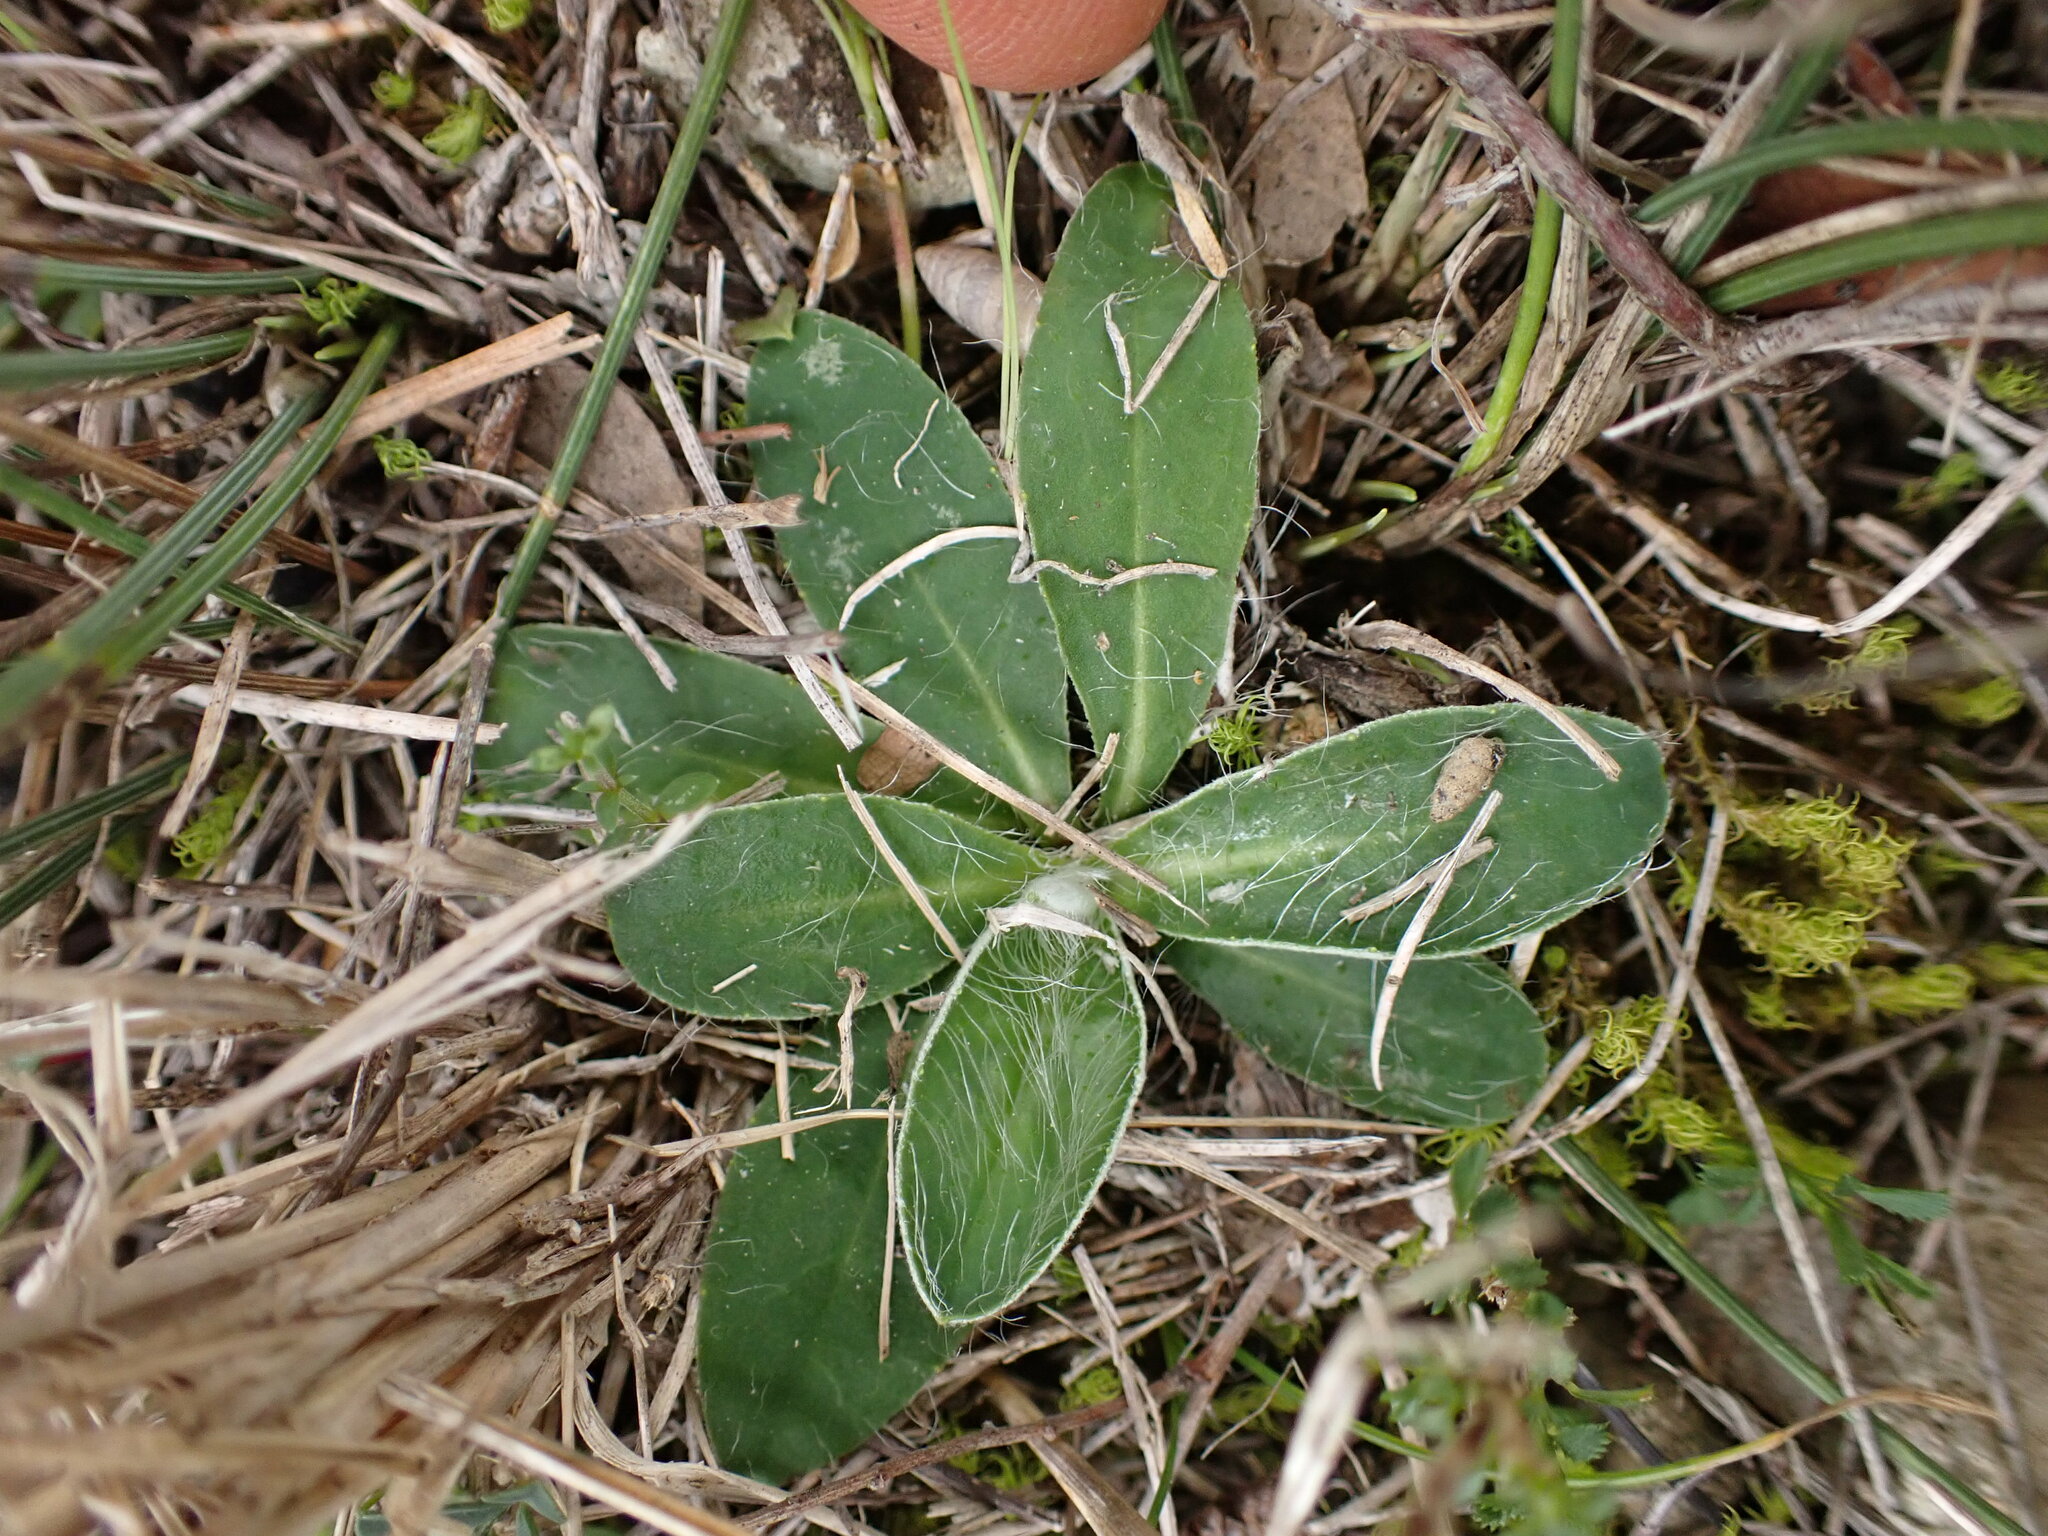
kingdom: Plantae
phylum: Tracheophyta
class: Magnoliopsida
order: Asterales
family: Asteraceae
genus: Pilosella
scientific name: Pilosella officinarum
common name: Mouse-ear hawkweed
